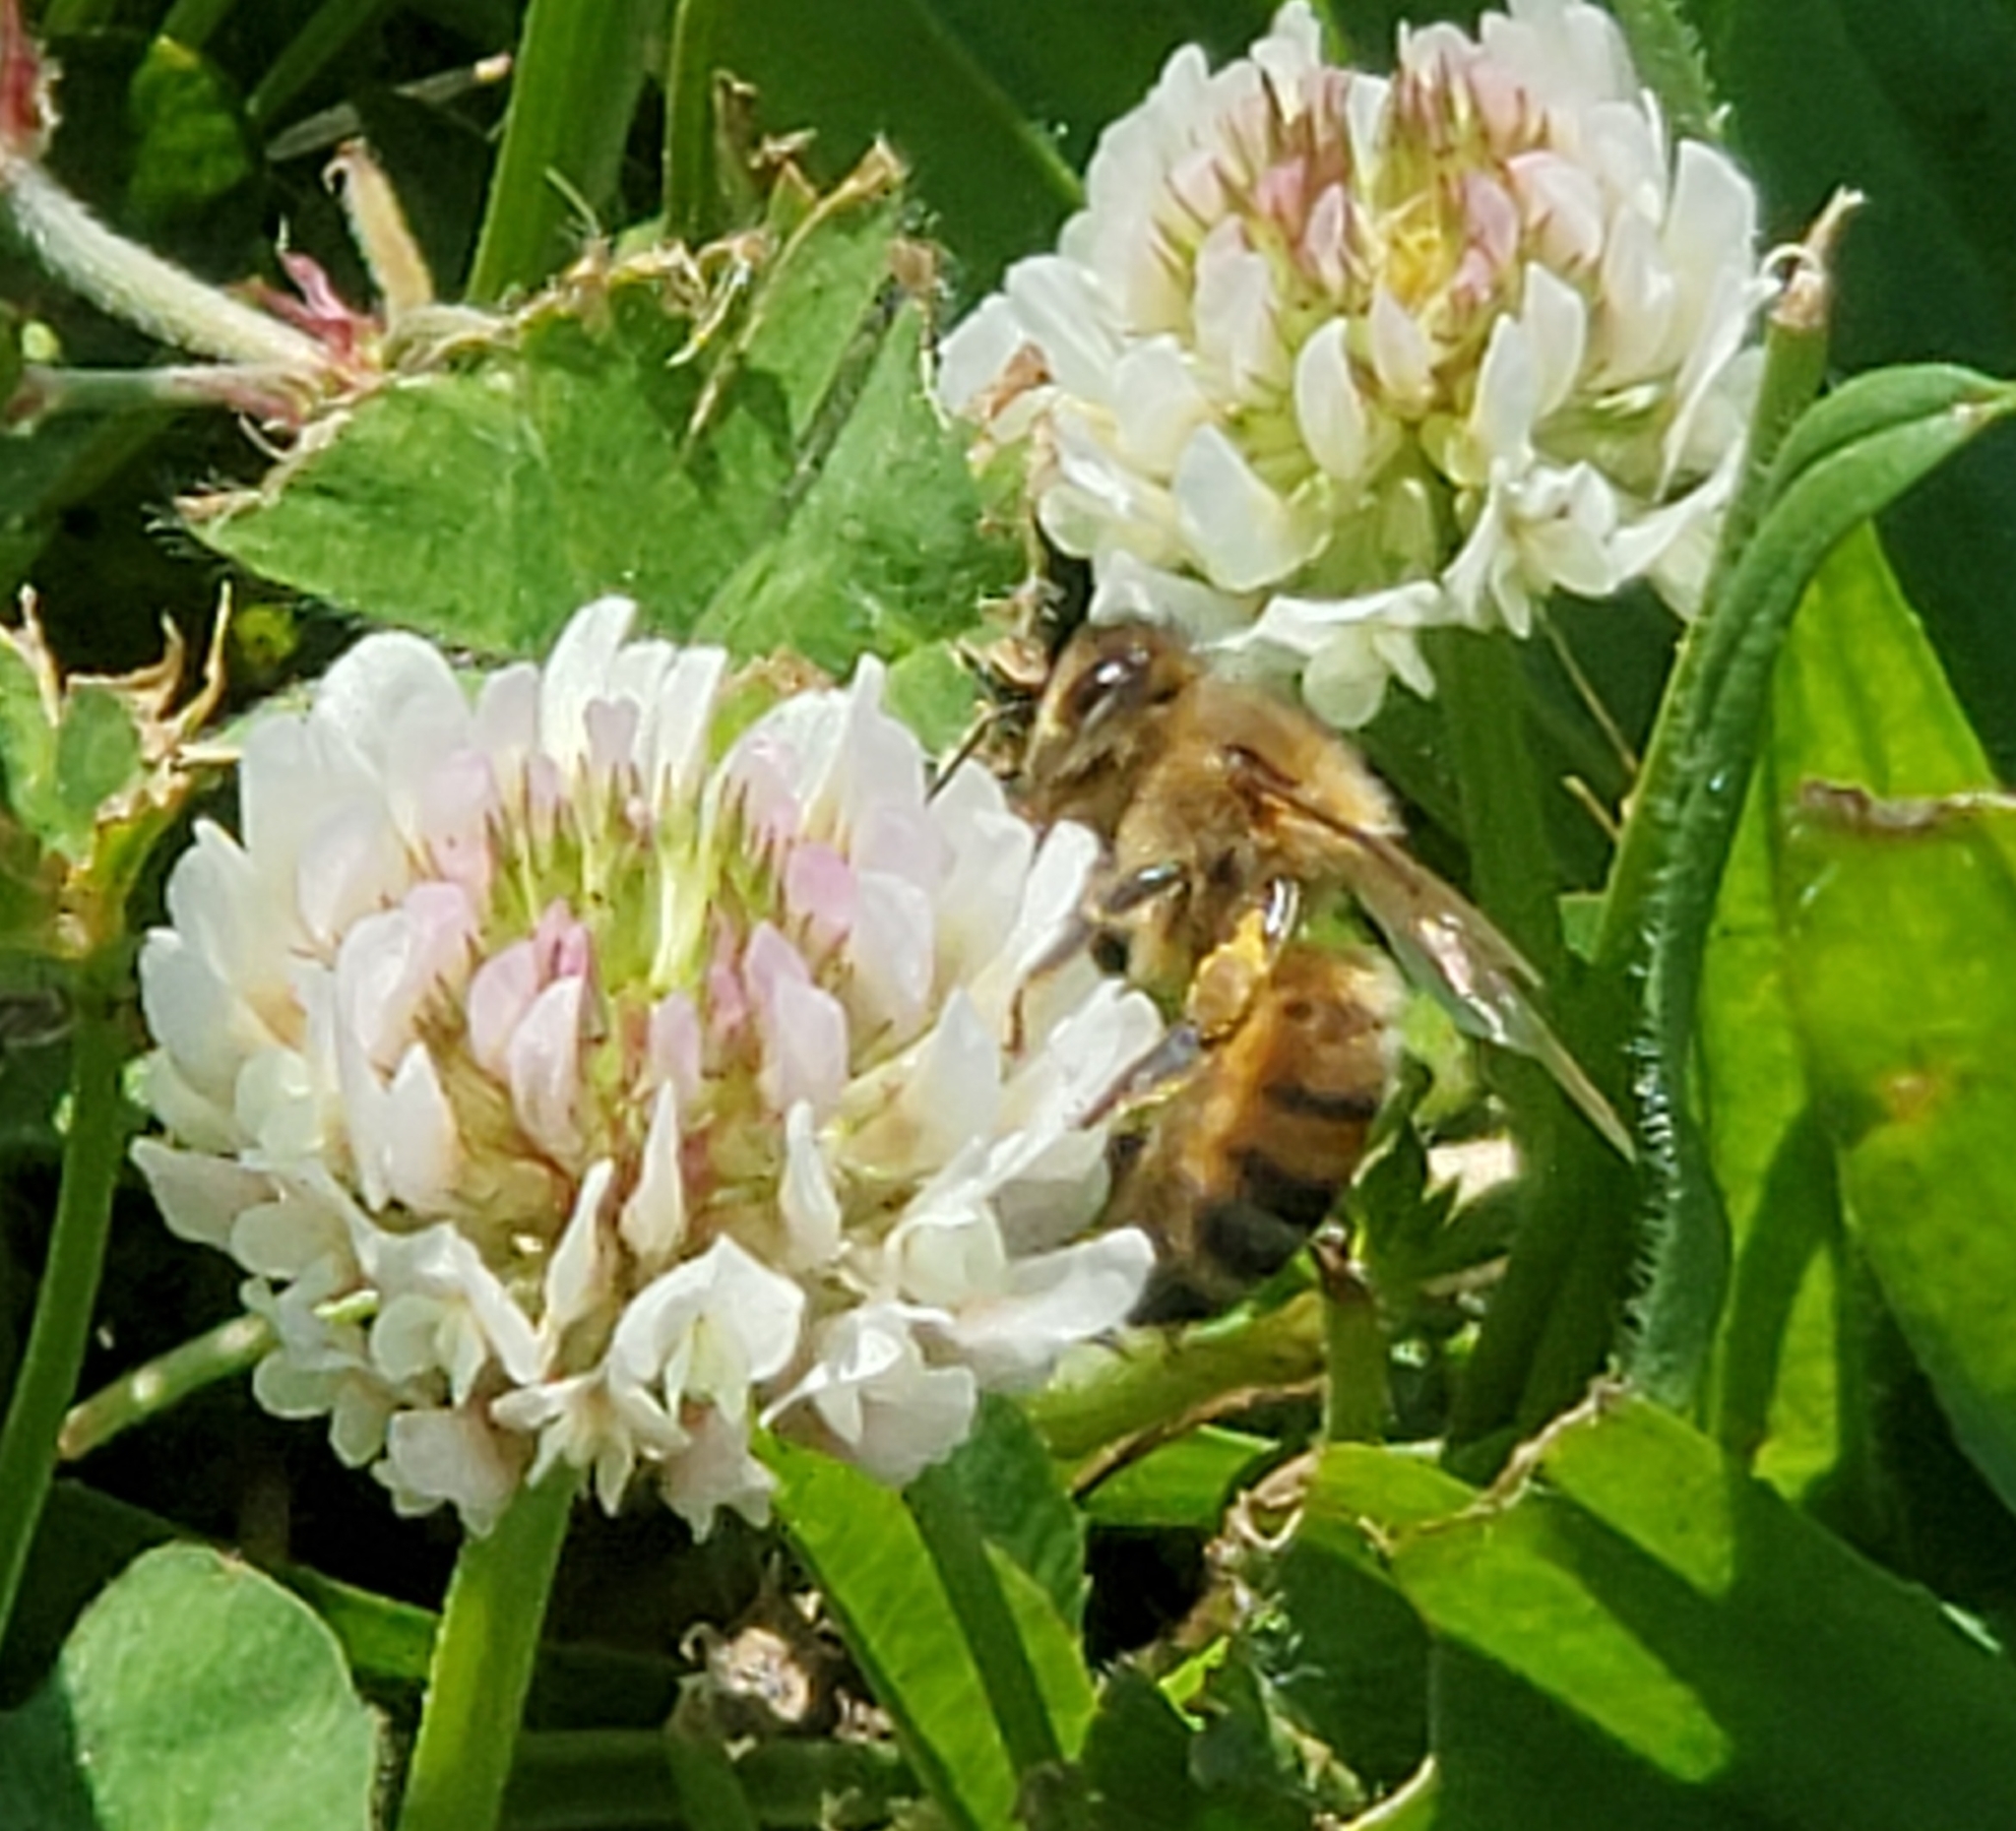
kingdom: Animalia
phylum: Arthropoda
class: Insecta
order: Hymenoptera
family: Apidae
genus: Apis
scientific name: Apis mellifera
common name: Honey bee
